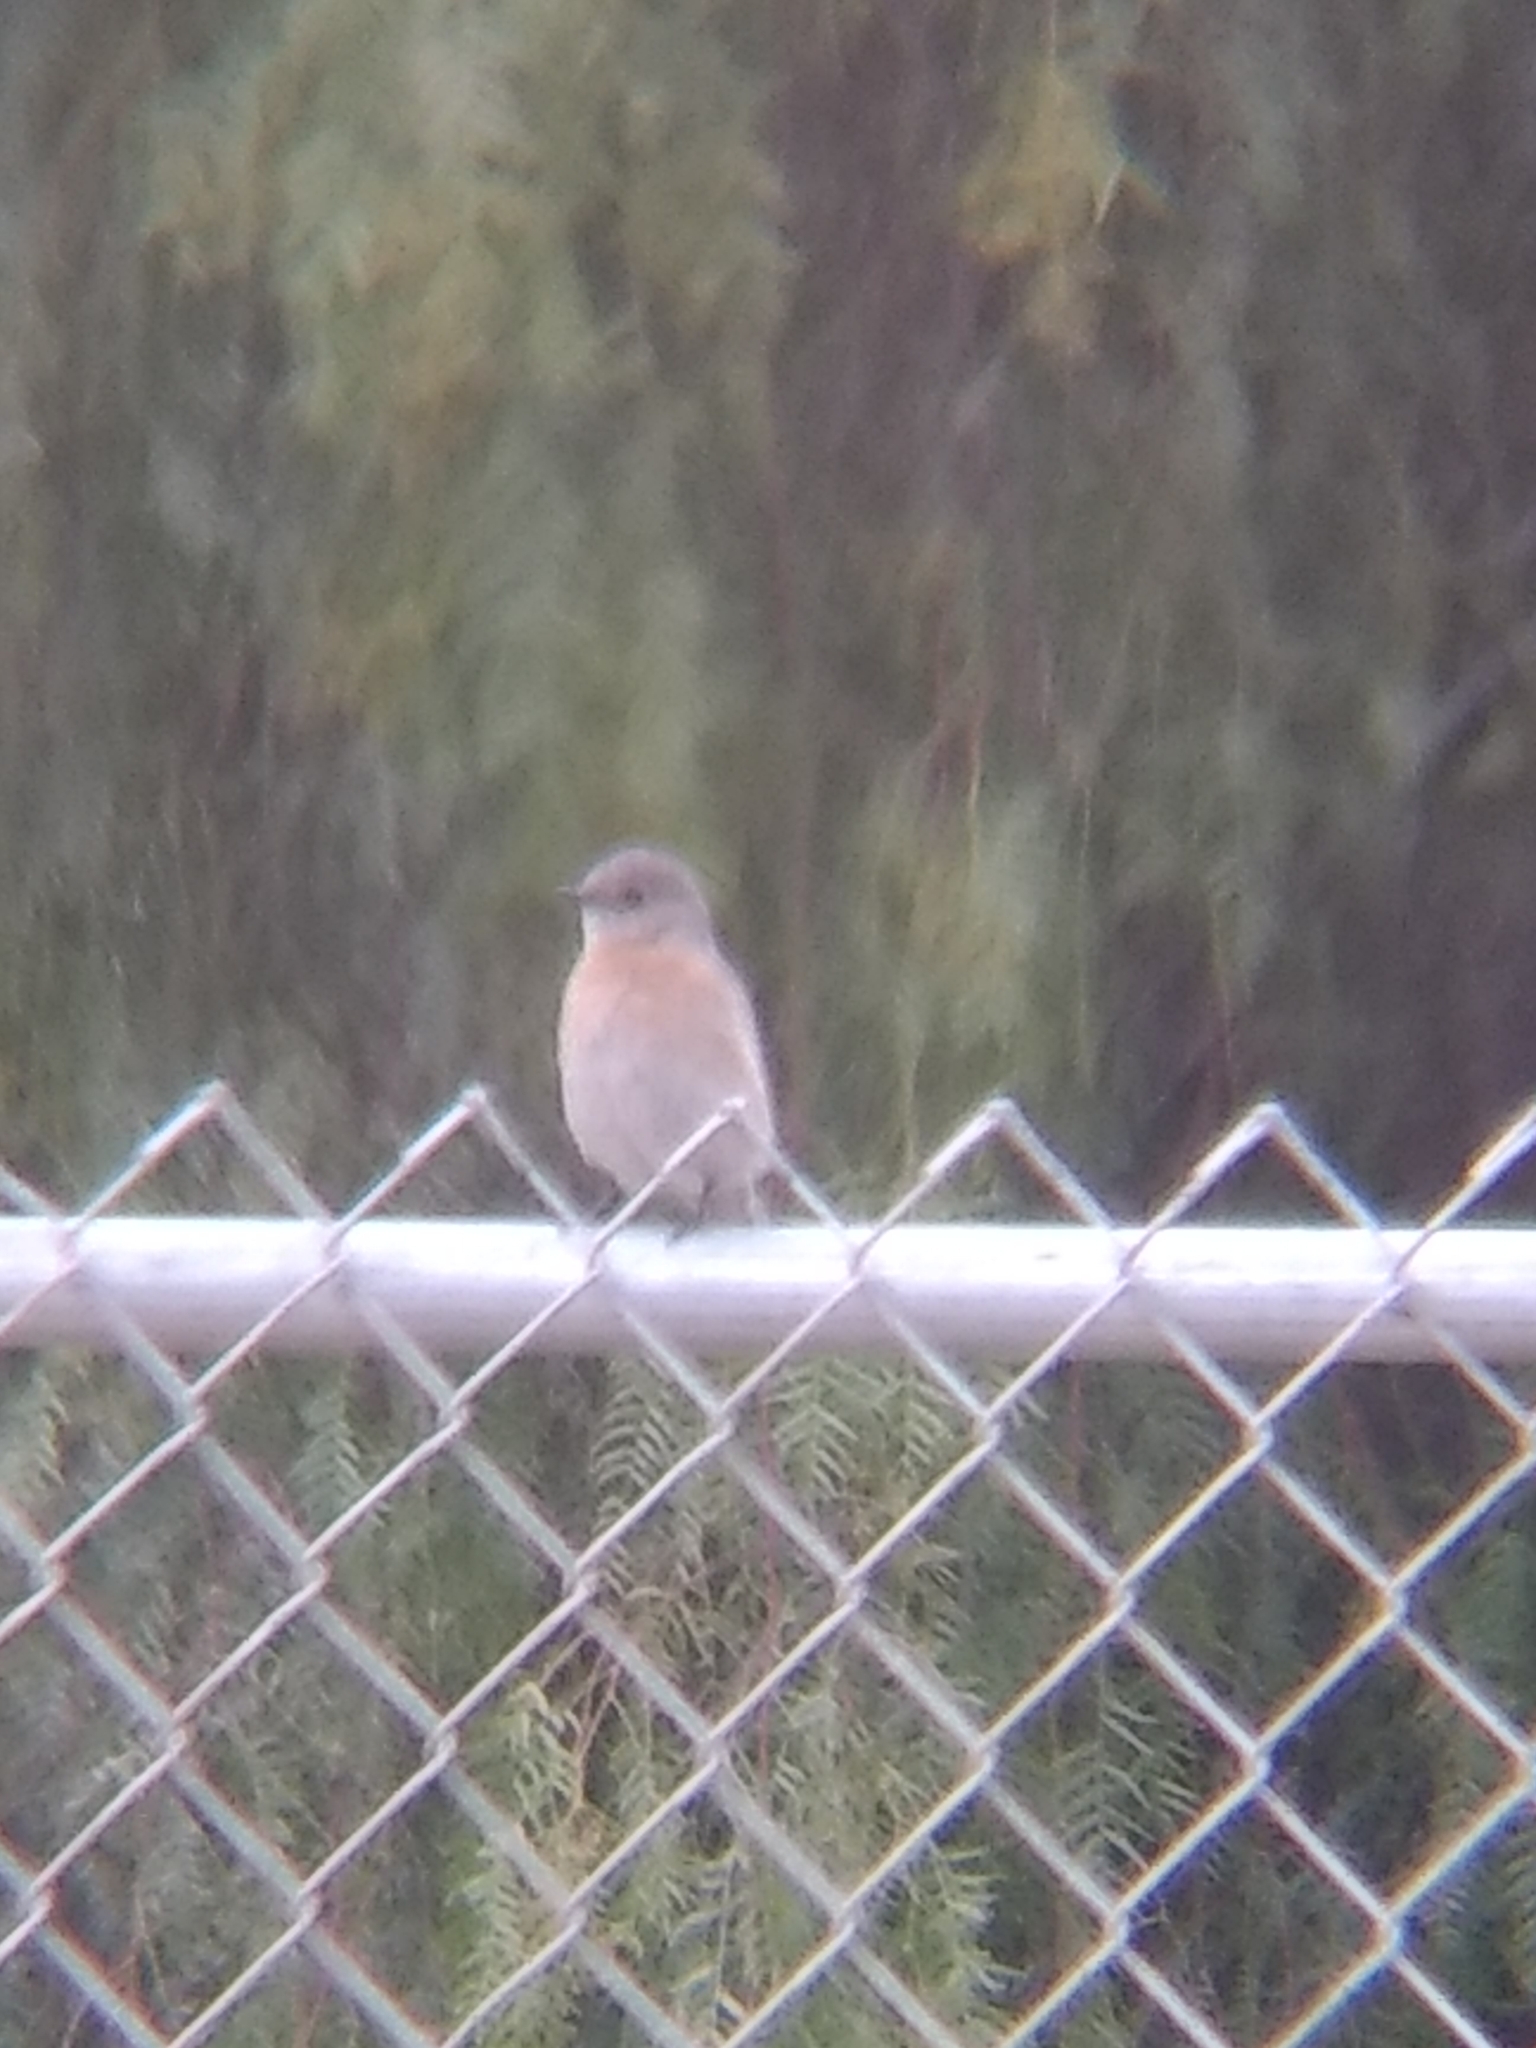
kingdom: Animalia
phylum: Chordata
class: Aves
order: Passeriformes
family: Turdidae
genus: Sialia
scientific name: Sialia mexicana
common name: Western bluebird
